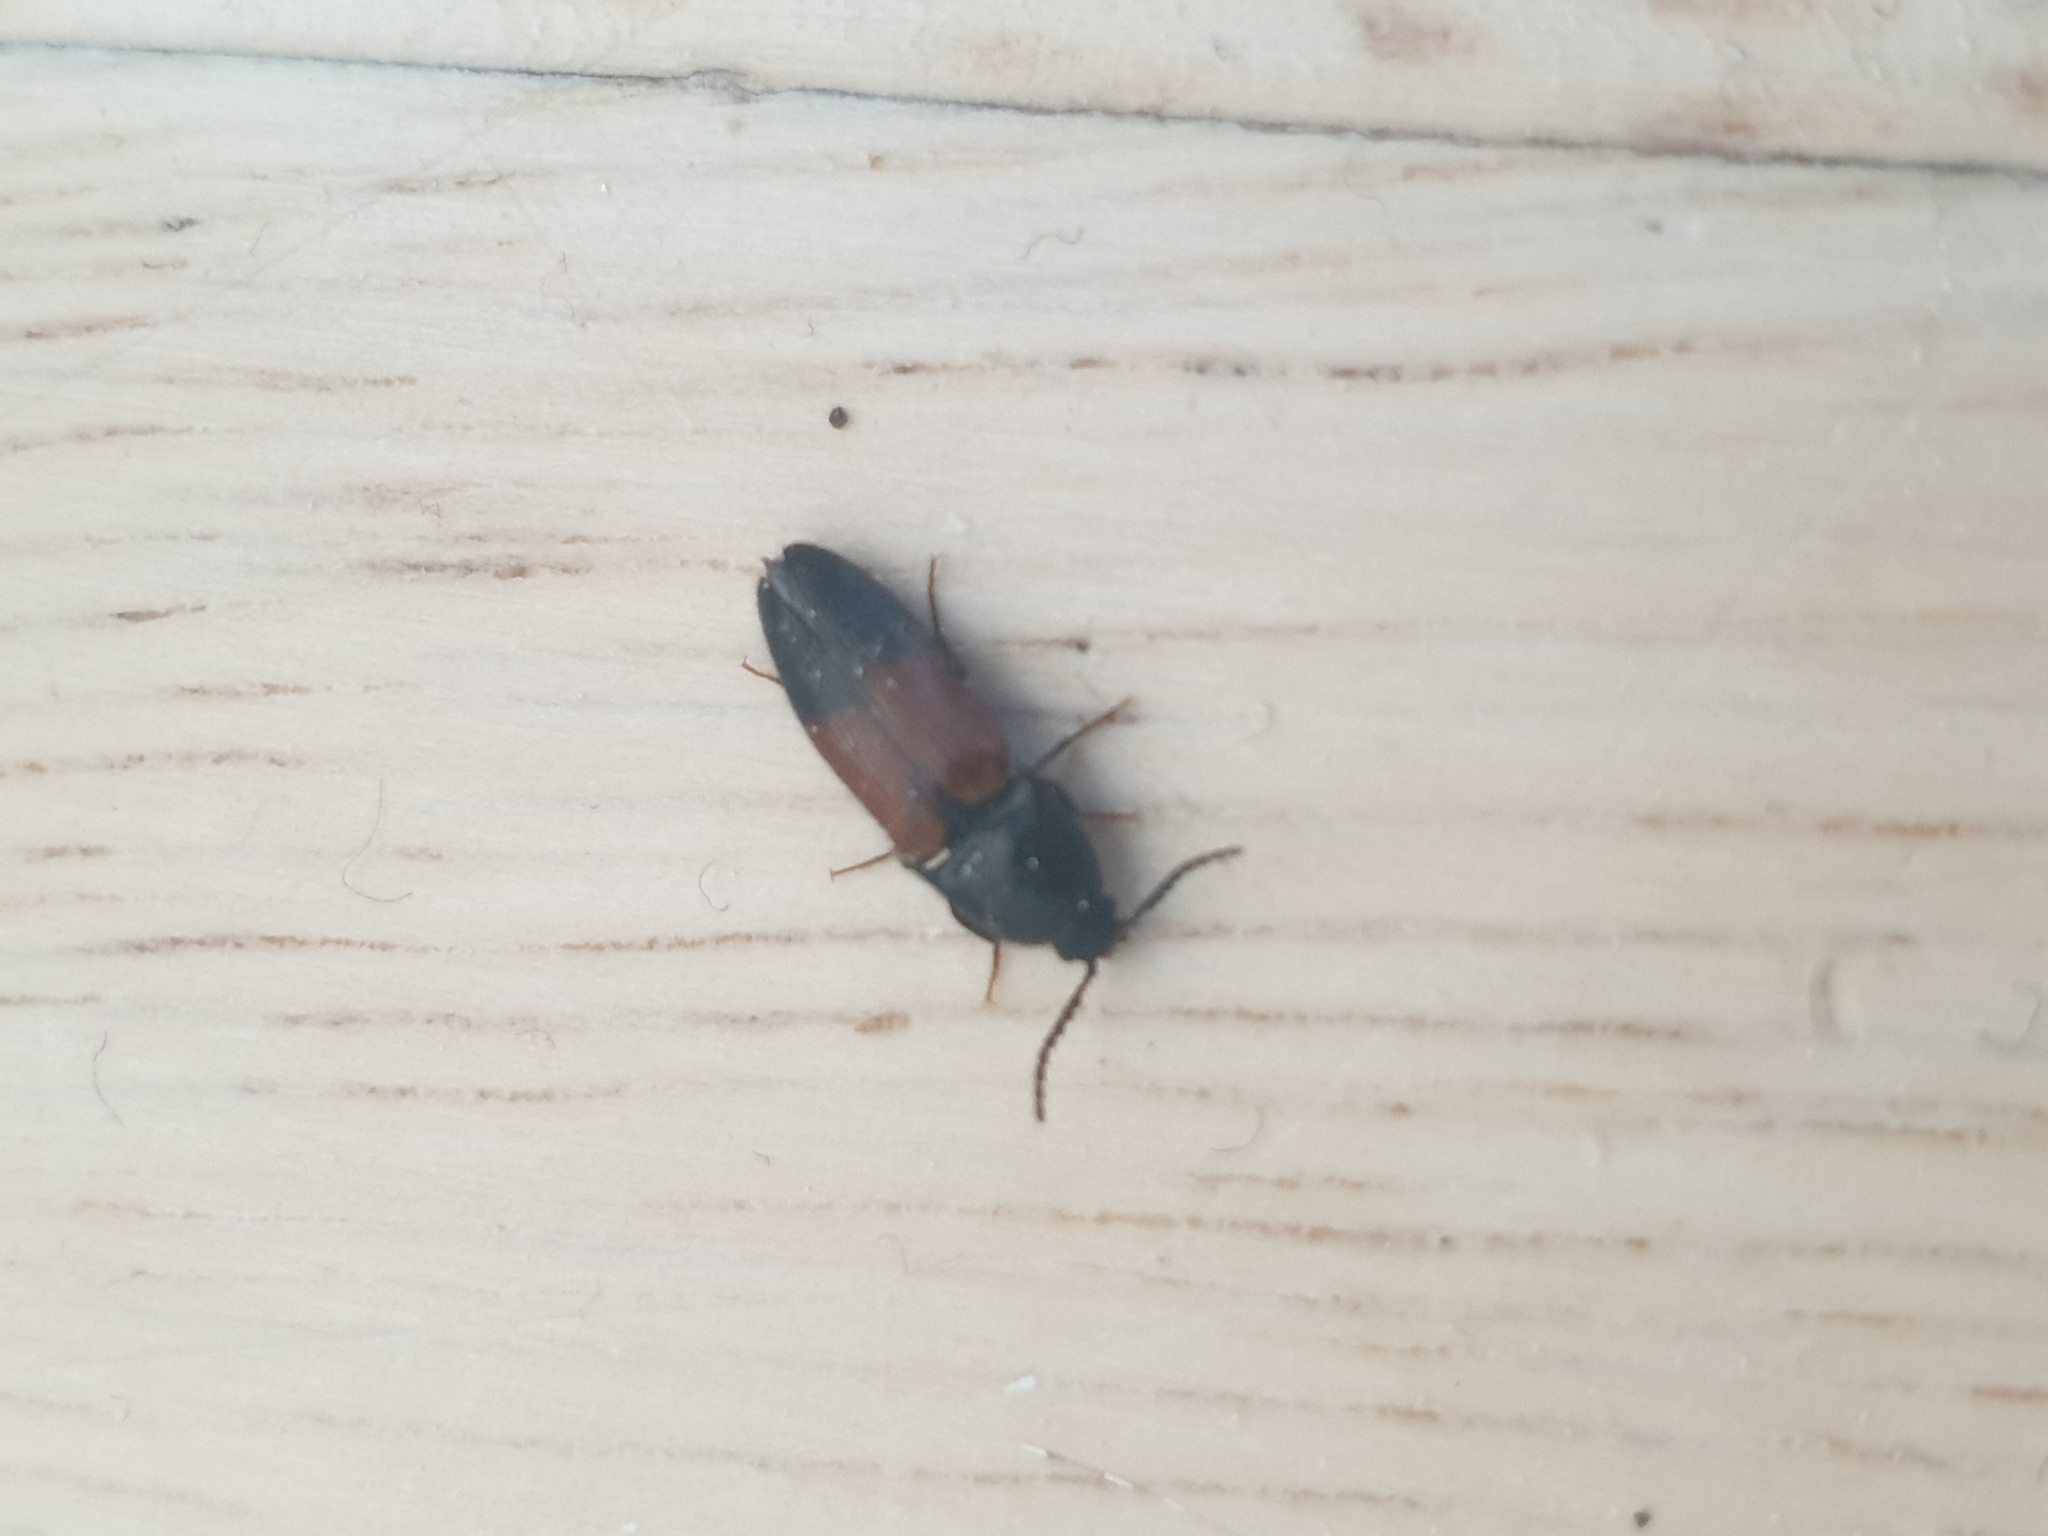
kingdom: Animalia
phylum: Arthropoda
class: Insecta
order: Coleoptera
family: Elateridae
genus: Ampedus
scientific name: Ampedus balteatus
